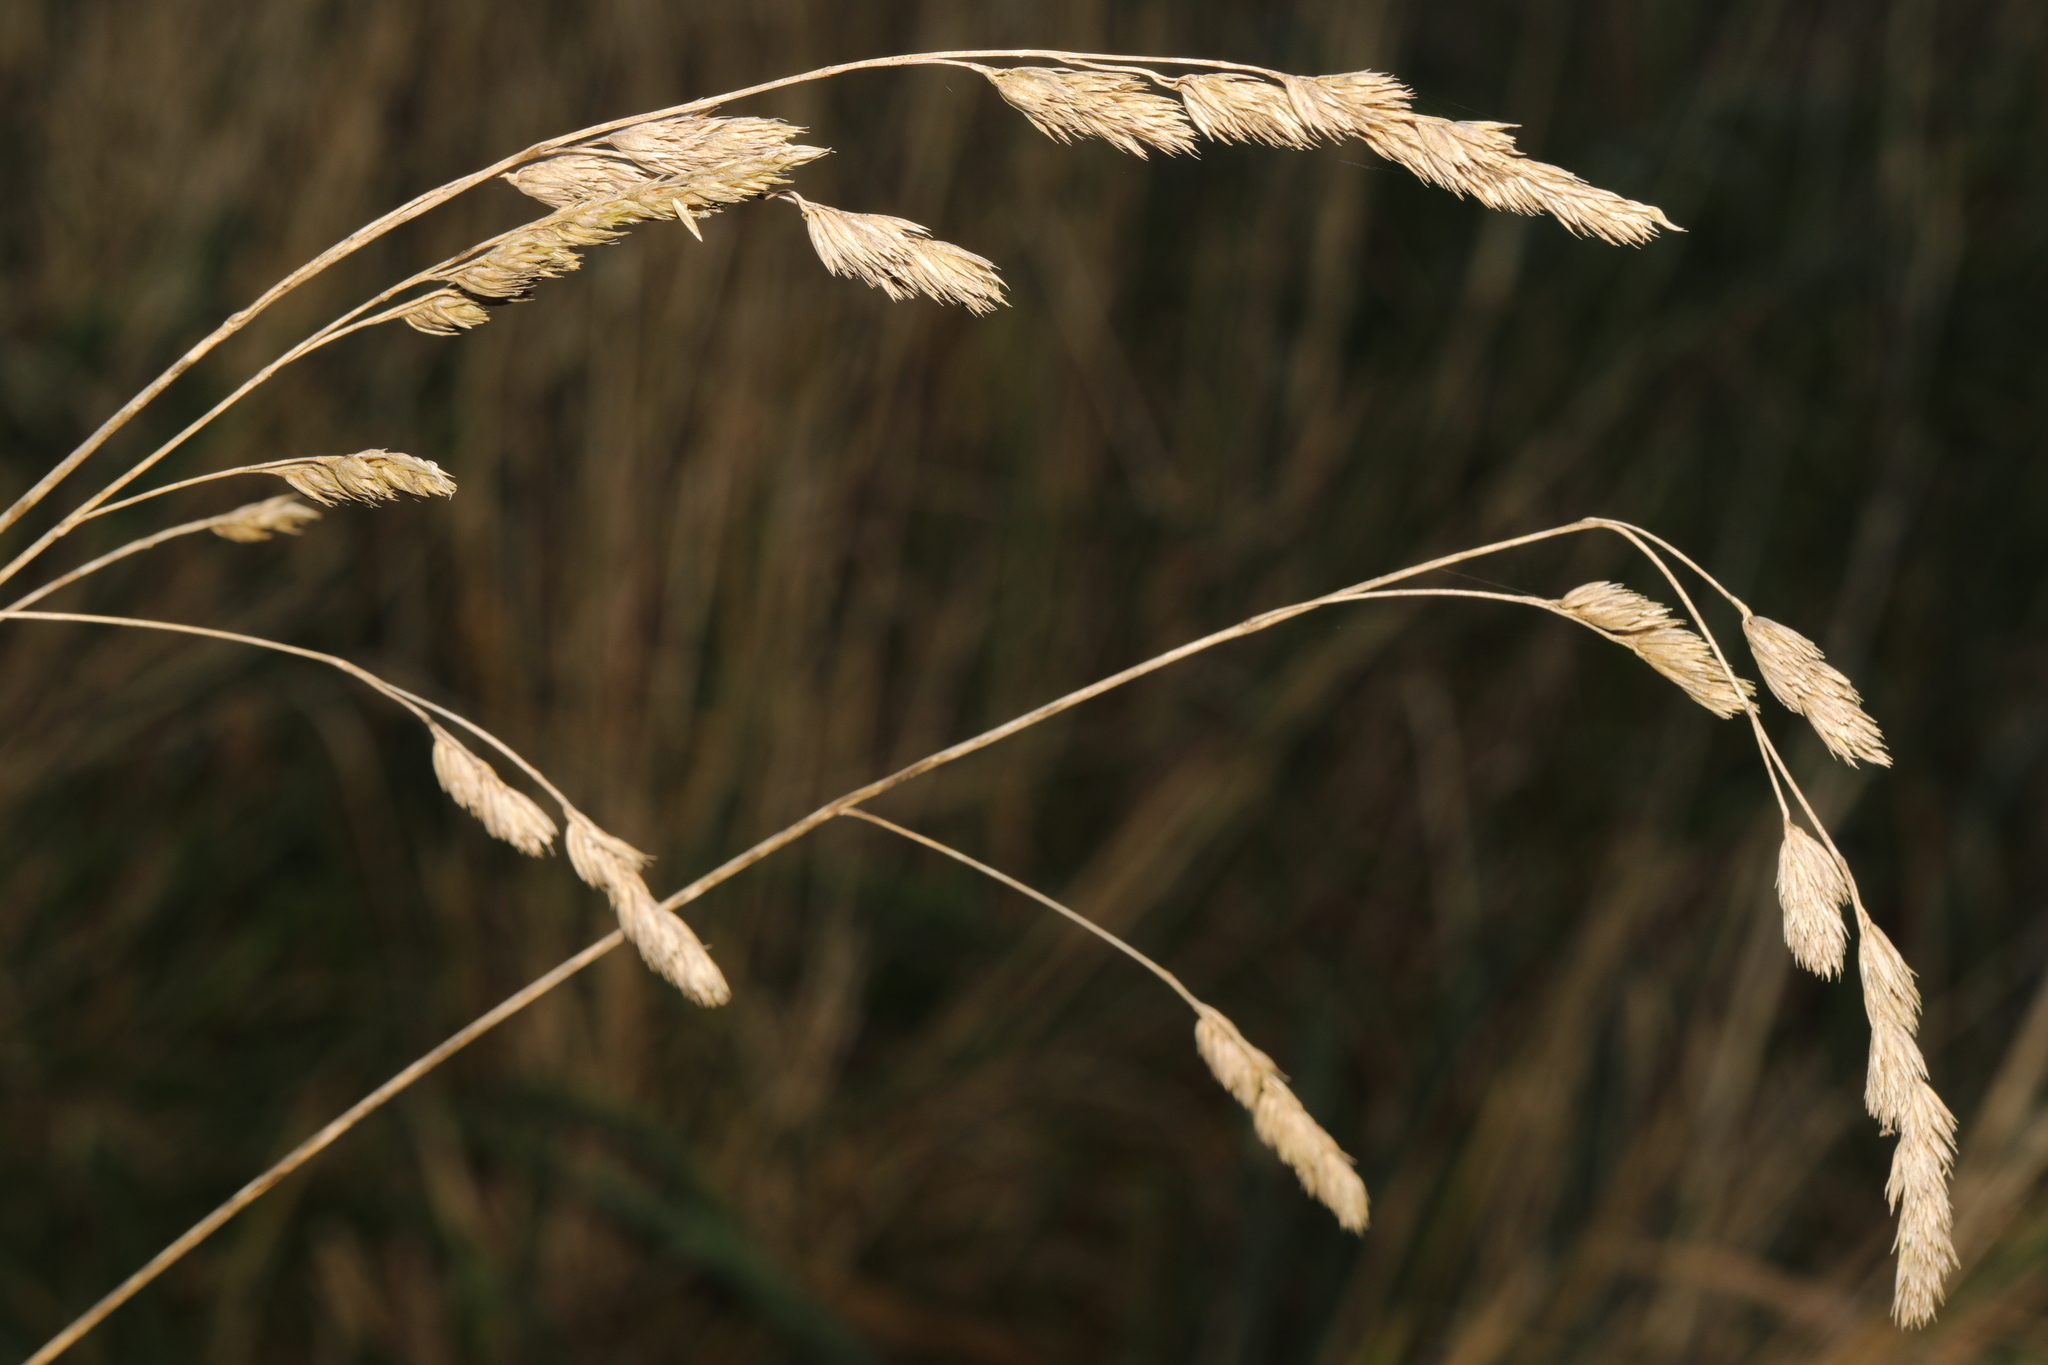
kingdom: Plantae
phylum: Tracheophyta
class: Liliopsida
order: Poales
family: Poaceae
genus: Dactylis
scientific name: Dactylis glomerata
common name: Orchardgrass
